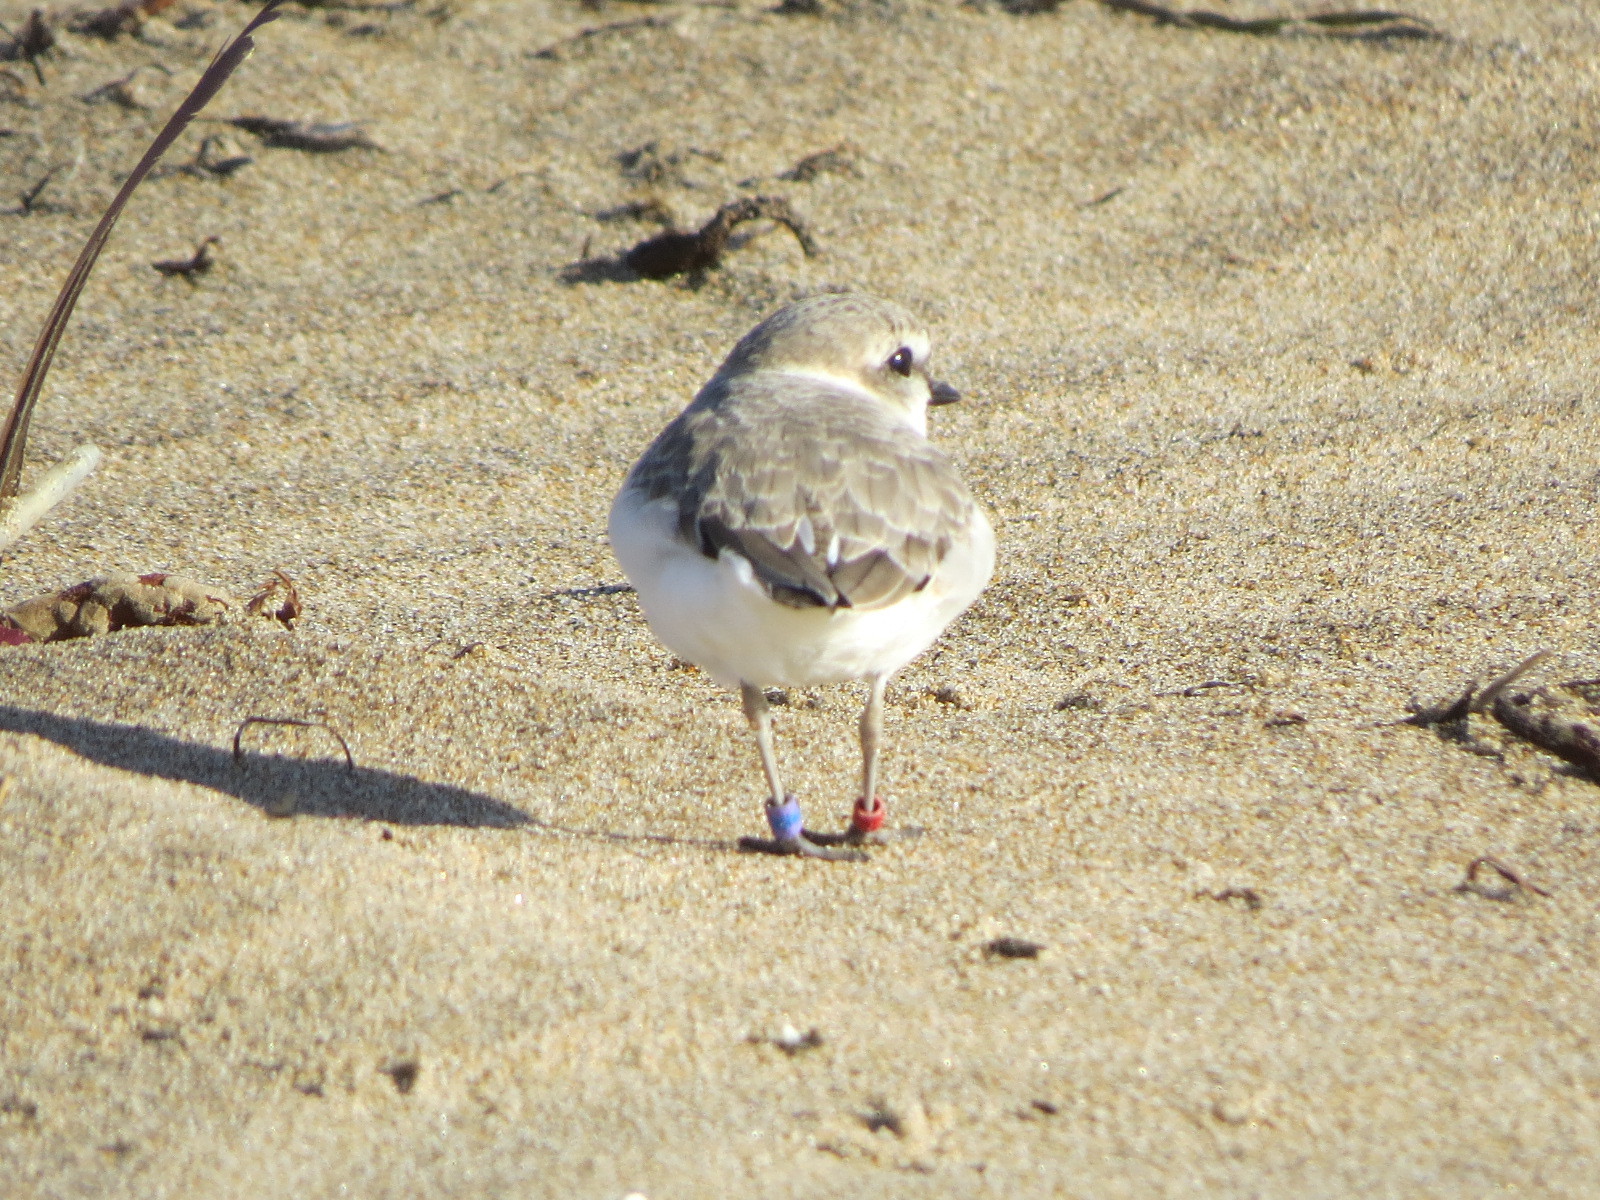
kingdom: Animalia
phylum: Chordata
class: Aves
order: Charadriiformes
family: Charadriidae
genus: Anarhynchus
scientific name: Anarhynchus
